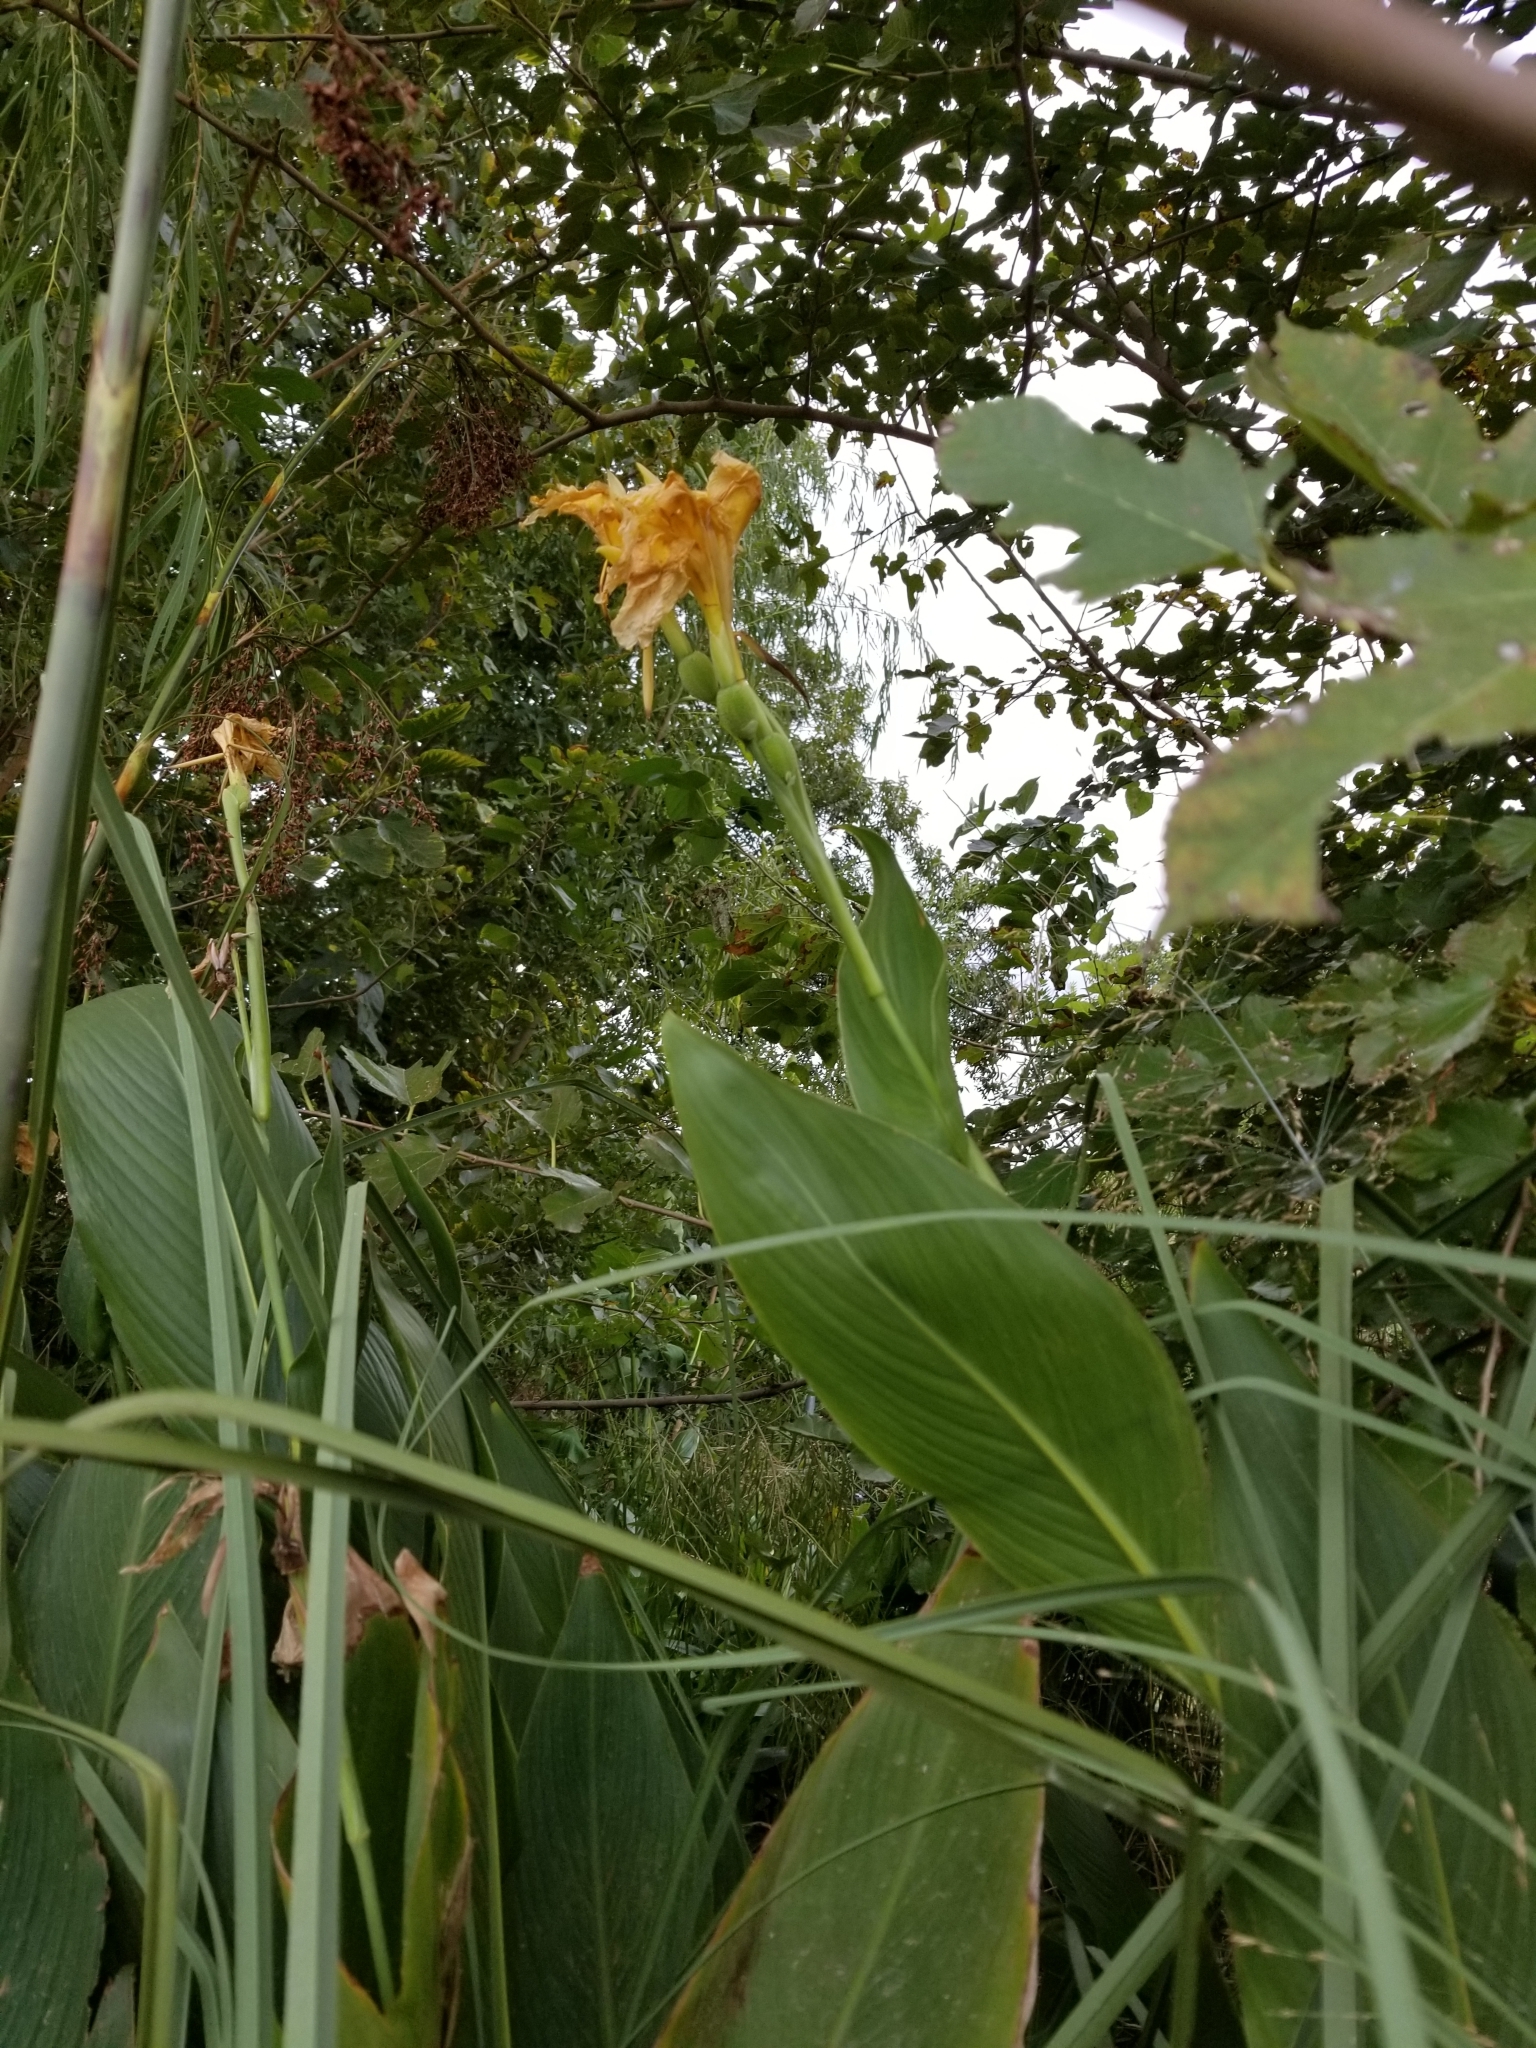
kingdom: Plantae
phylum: Tracheophyta
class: Liliopsida
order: Zingiberales
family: Cannaceae
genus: Canna
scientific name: Canna hybrida
